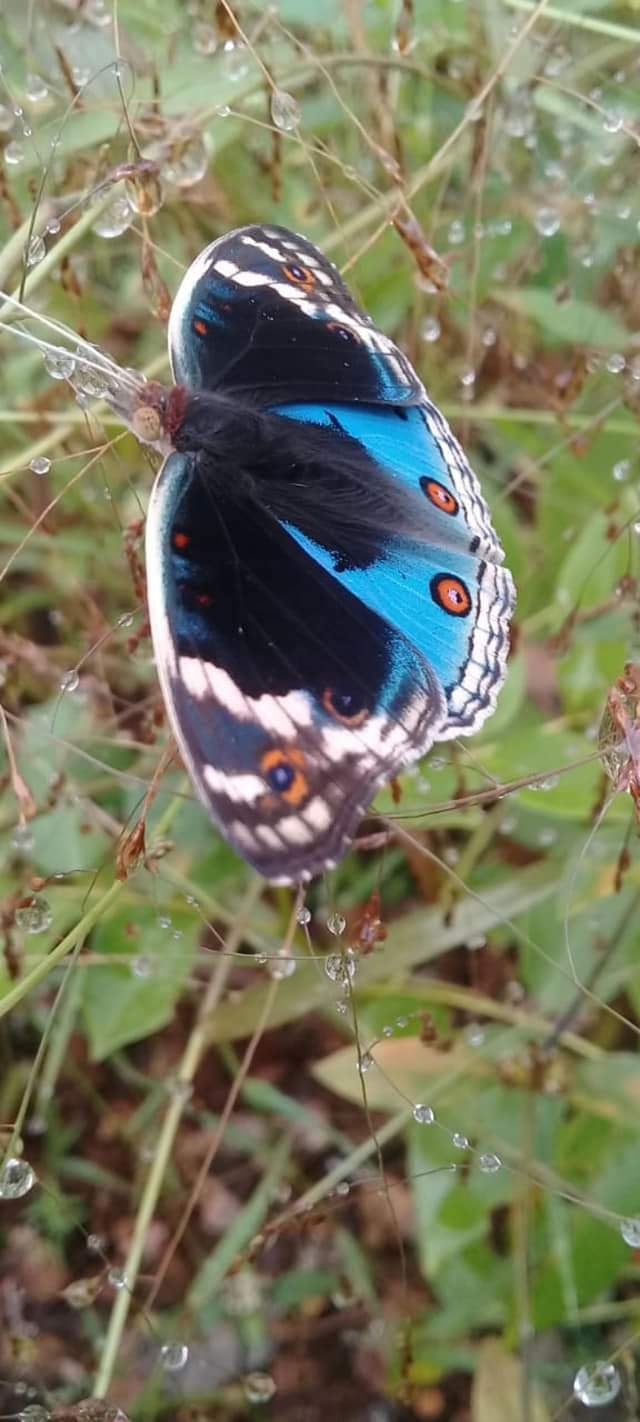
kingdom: Animalia
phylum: Arthropoda
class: Insecta
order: Lepidoptera
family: Nymphalidae
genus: Junonia
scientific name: Junonia orithya
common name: Blue pansy
